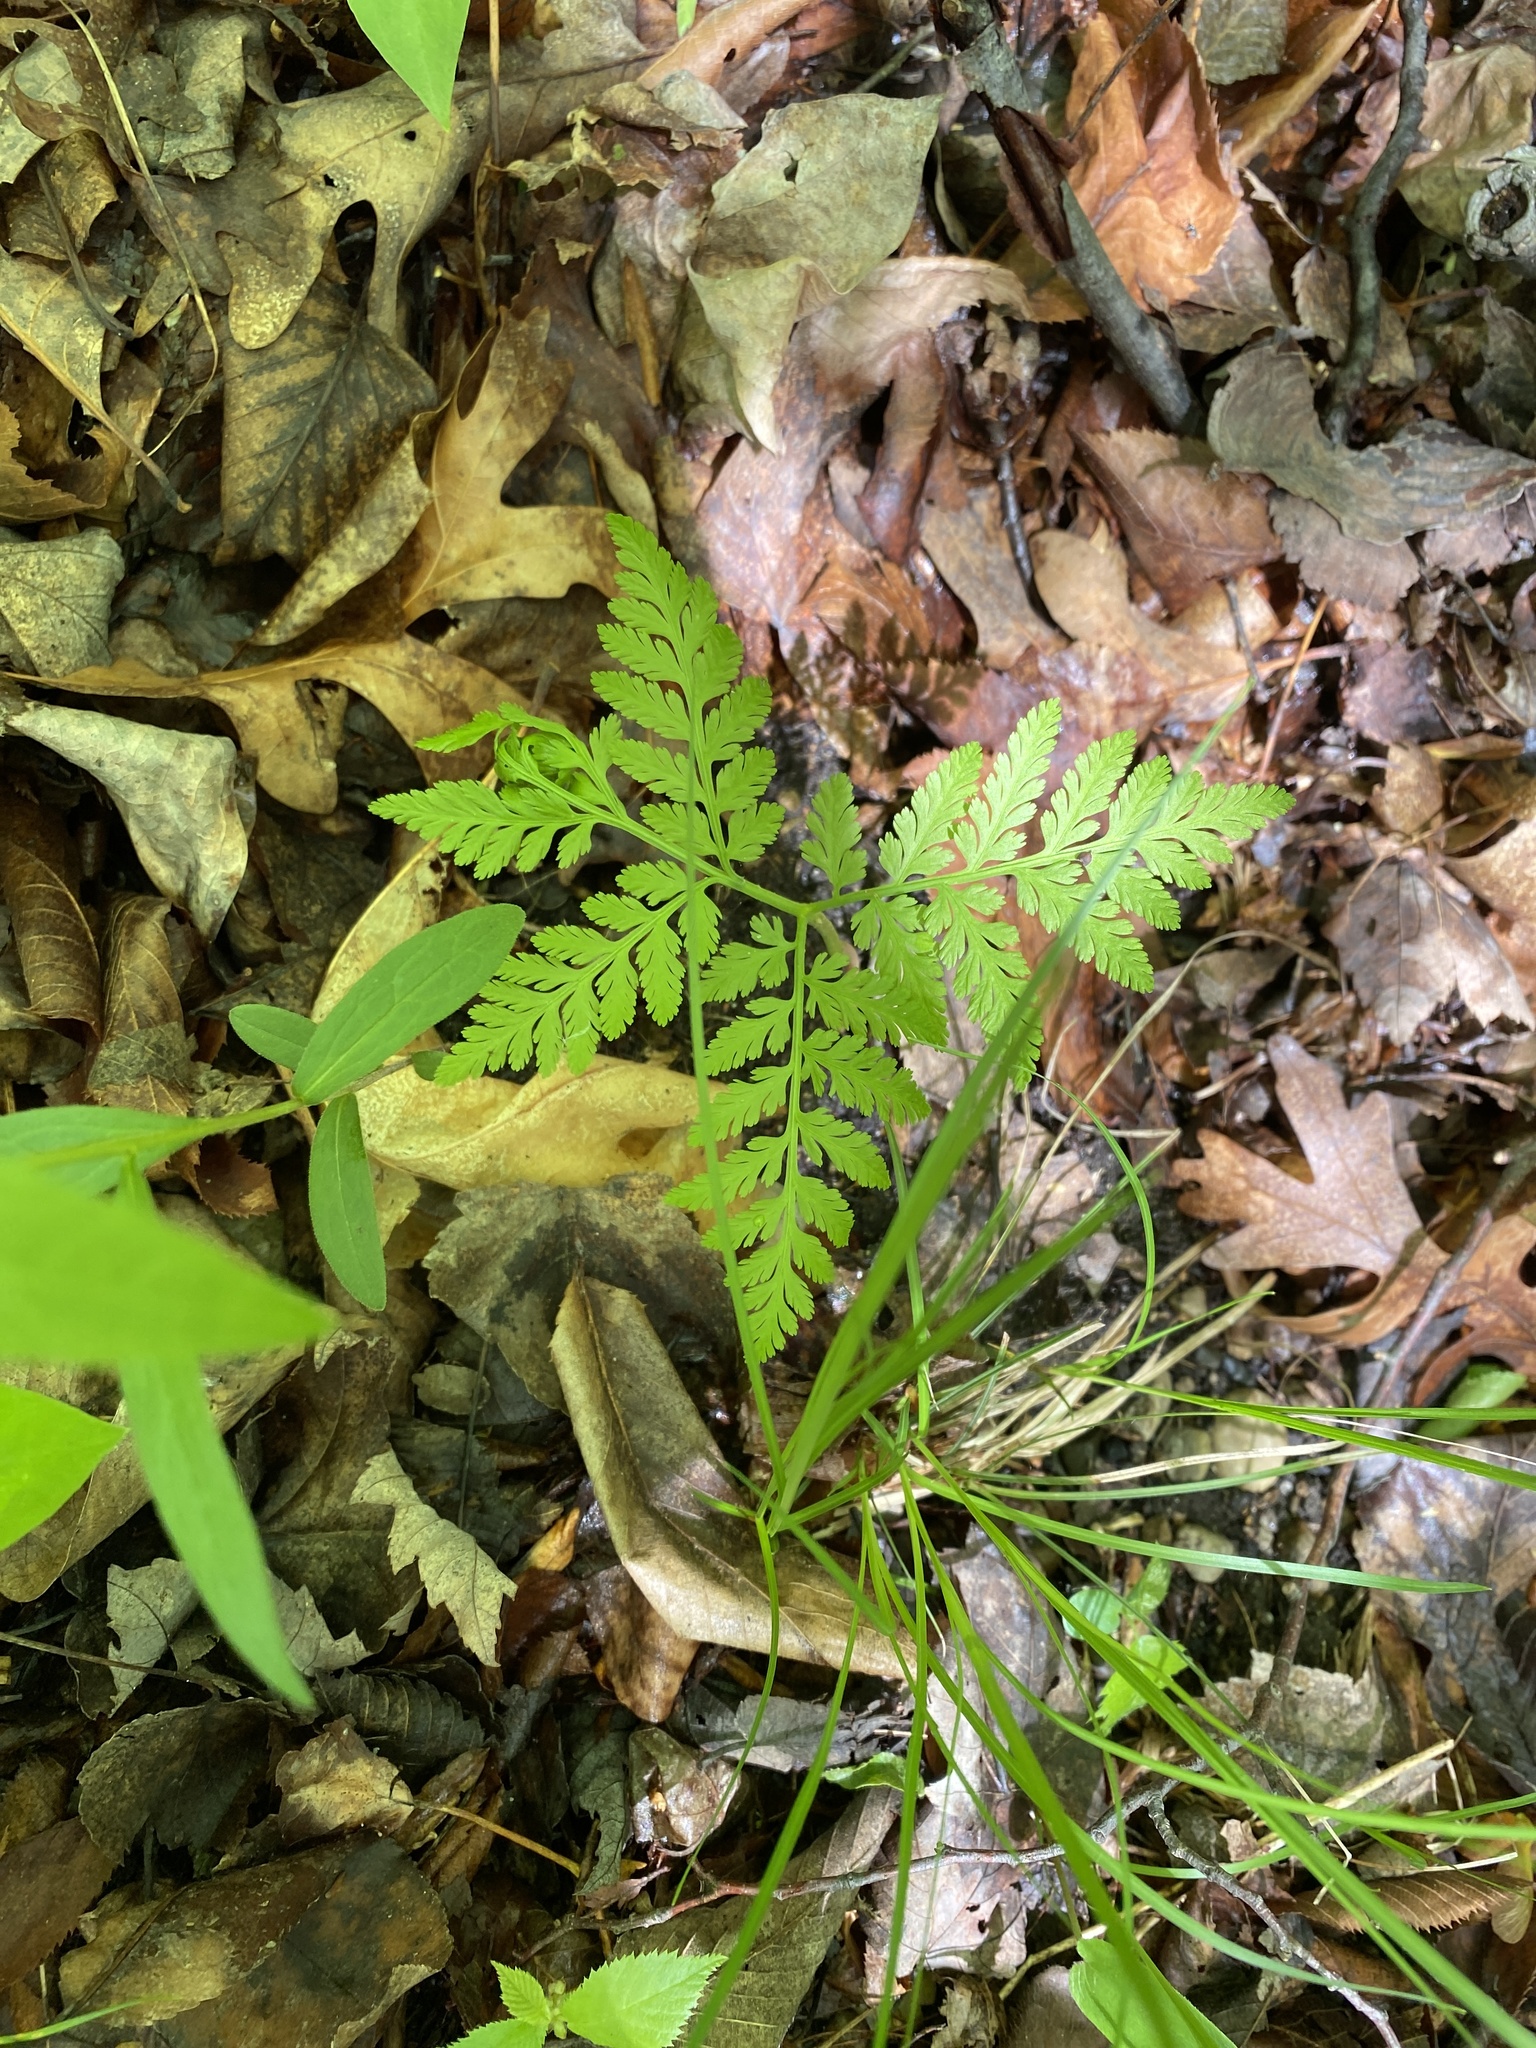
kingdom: Plantae
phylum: Tracheophyta
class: Polypodiopsida
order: Ophioglossales
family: Ophioglossaceae
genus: Botrypus
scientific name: Botrypus virginianus
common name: Common grapefern
